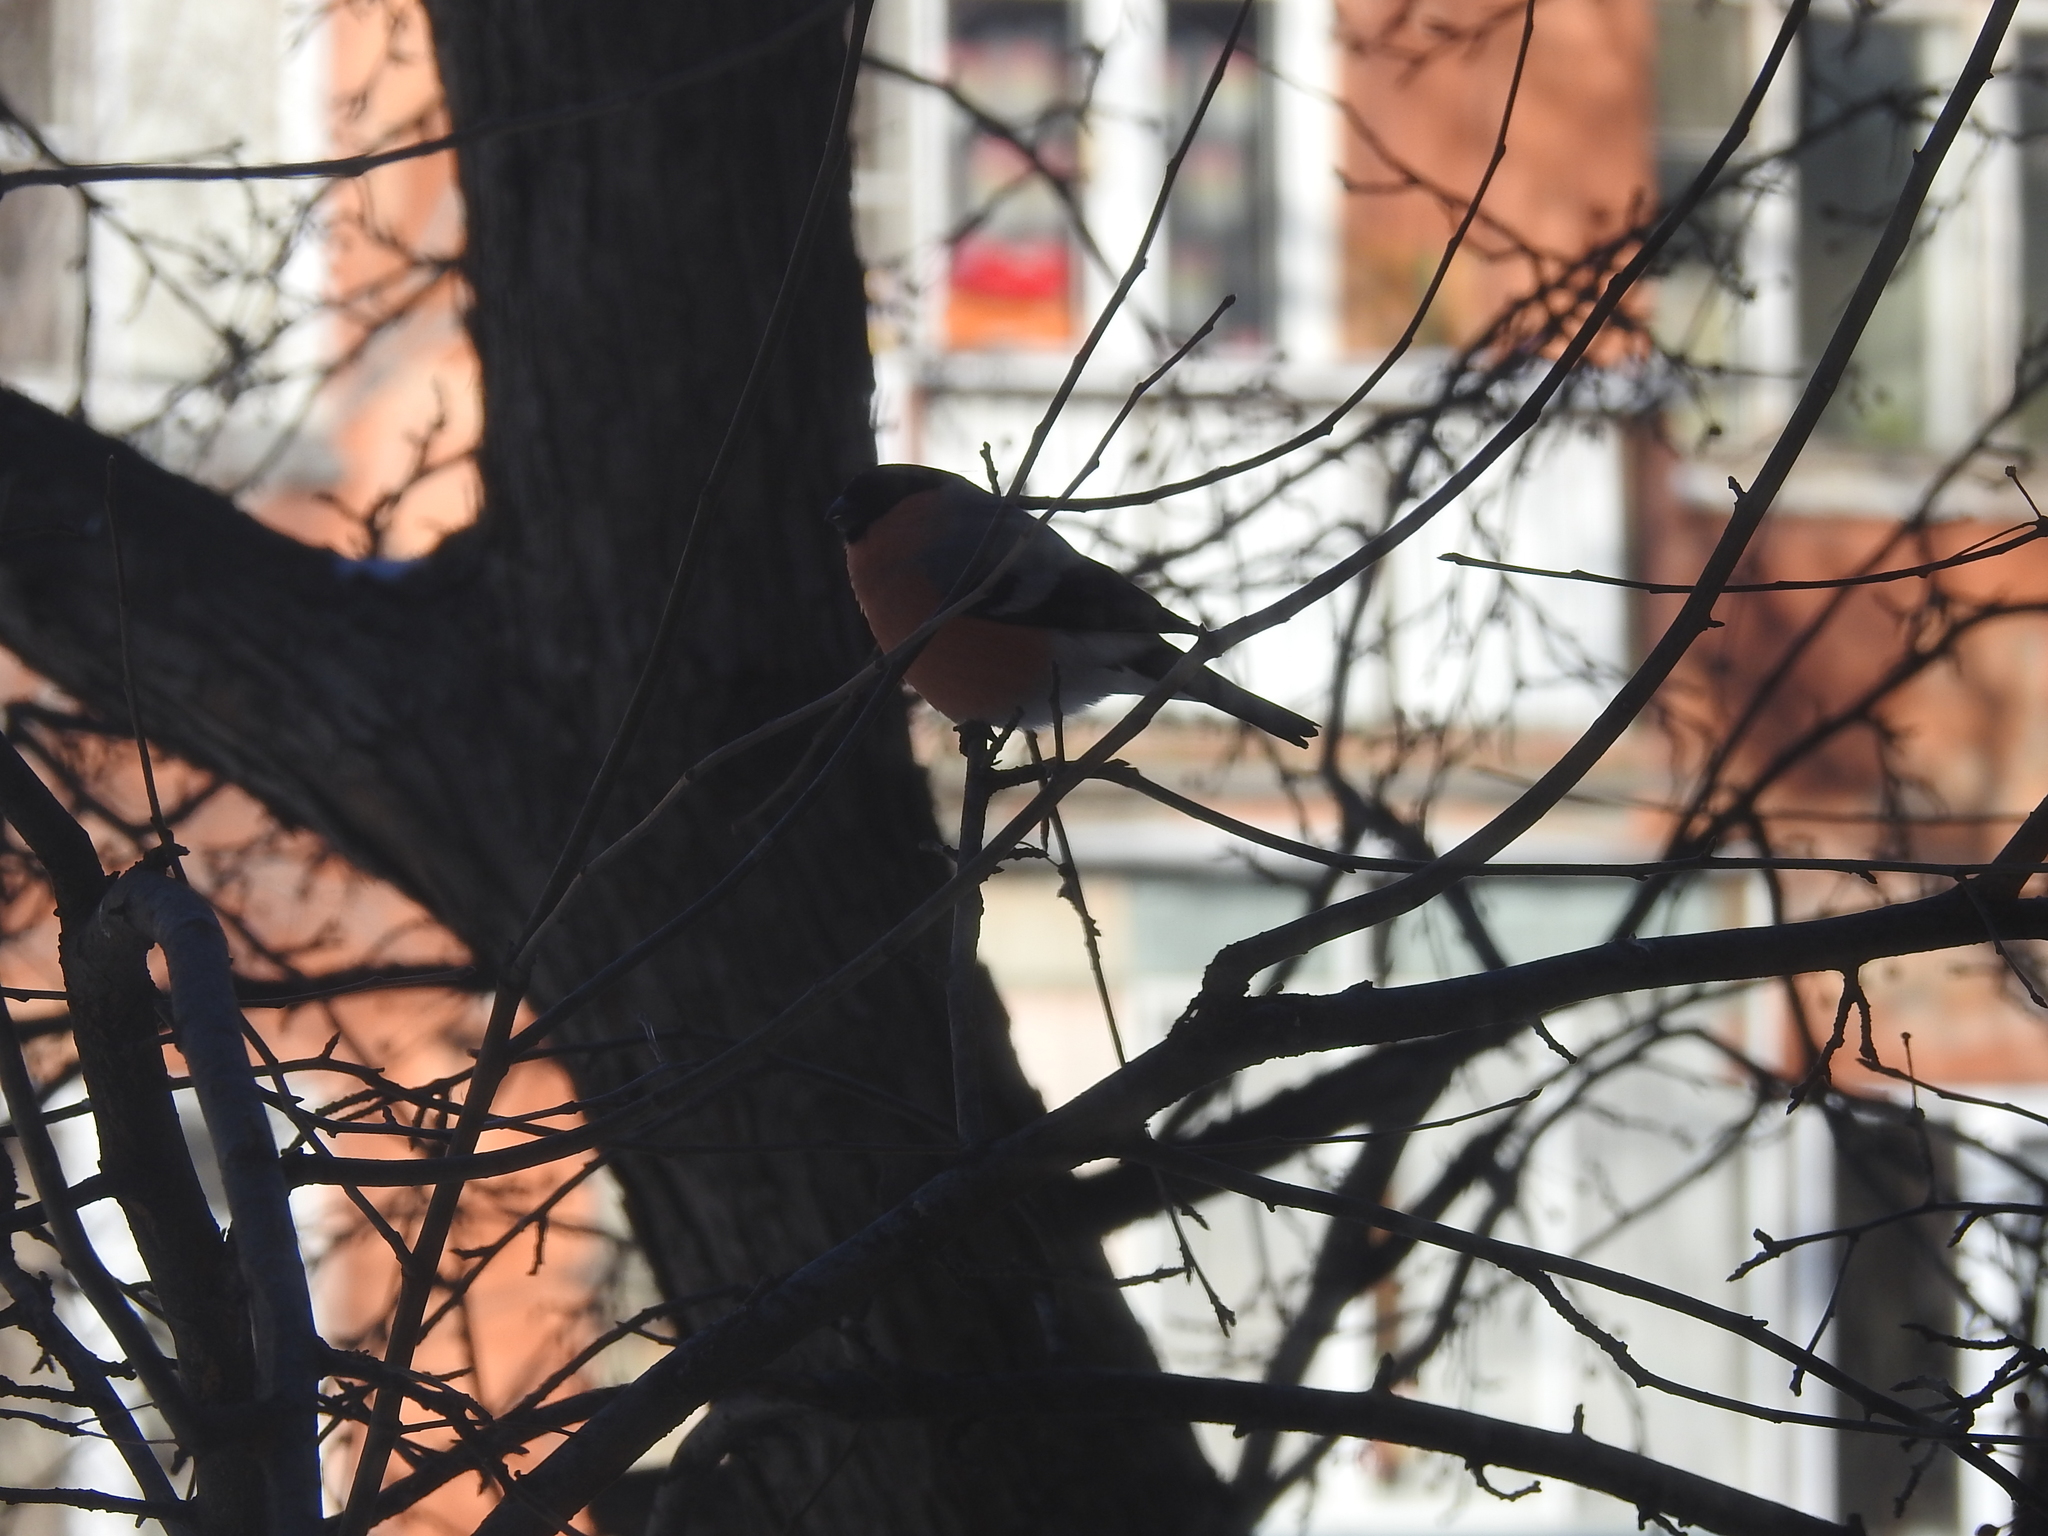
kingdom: Animalia
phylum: Chordata
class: Aves
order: Passeriformes
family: Fringillidae
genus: Pyrrhula
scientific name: Pyrrhula pyrrhula
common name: Eurasian bullfinch
